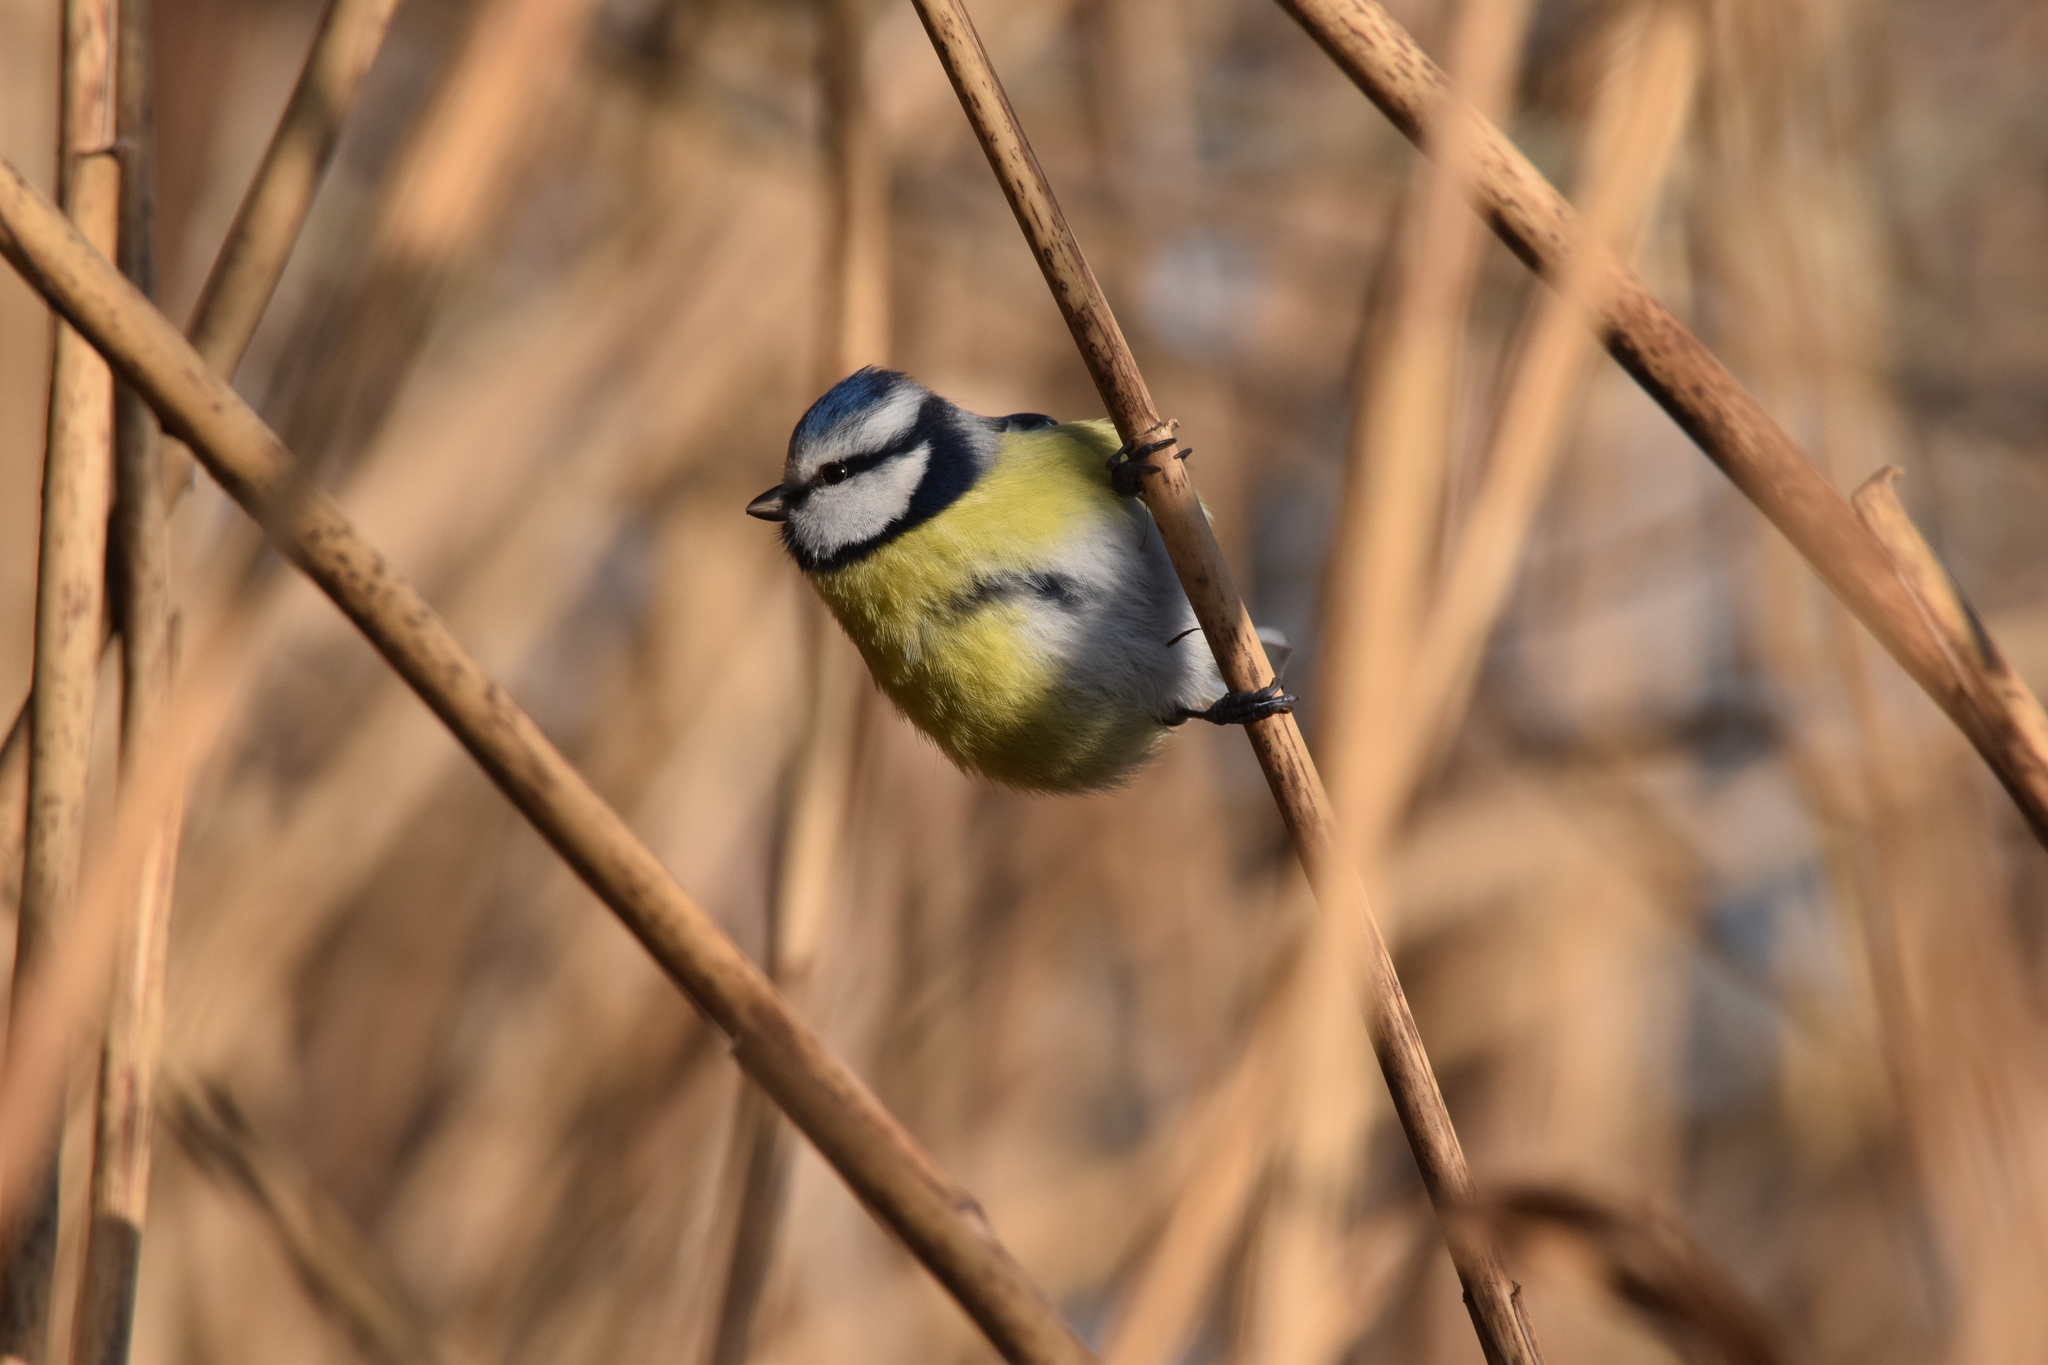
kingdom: Animalia
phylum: Chordata
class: Aves
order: Passeriformes
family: Paridae
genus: Cyanistes
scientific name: Cyanistes caeruleus
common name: Eurasian blue tit
